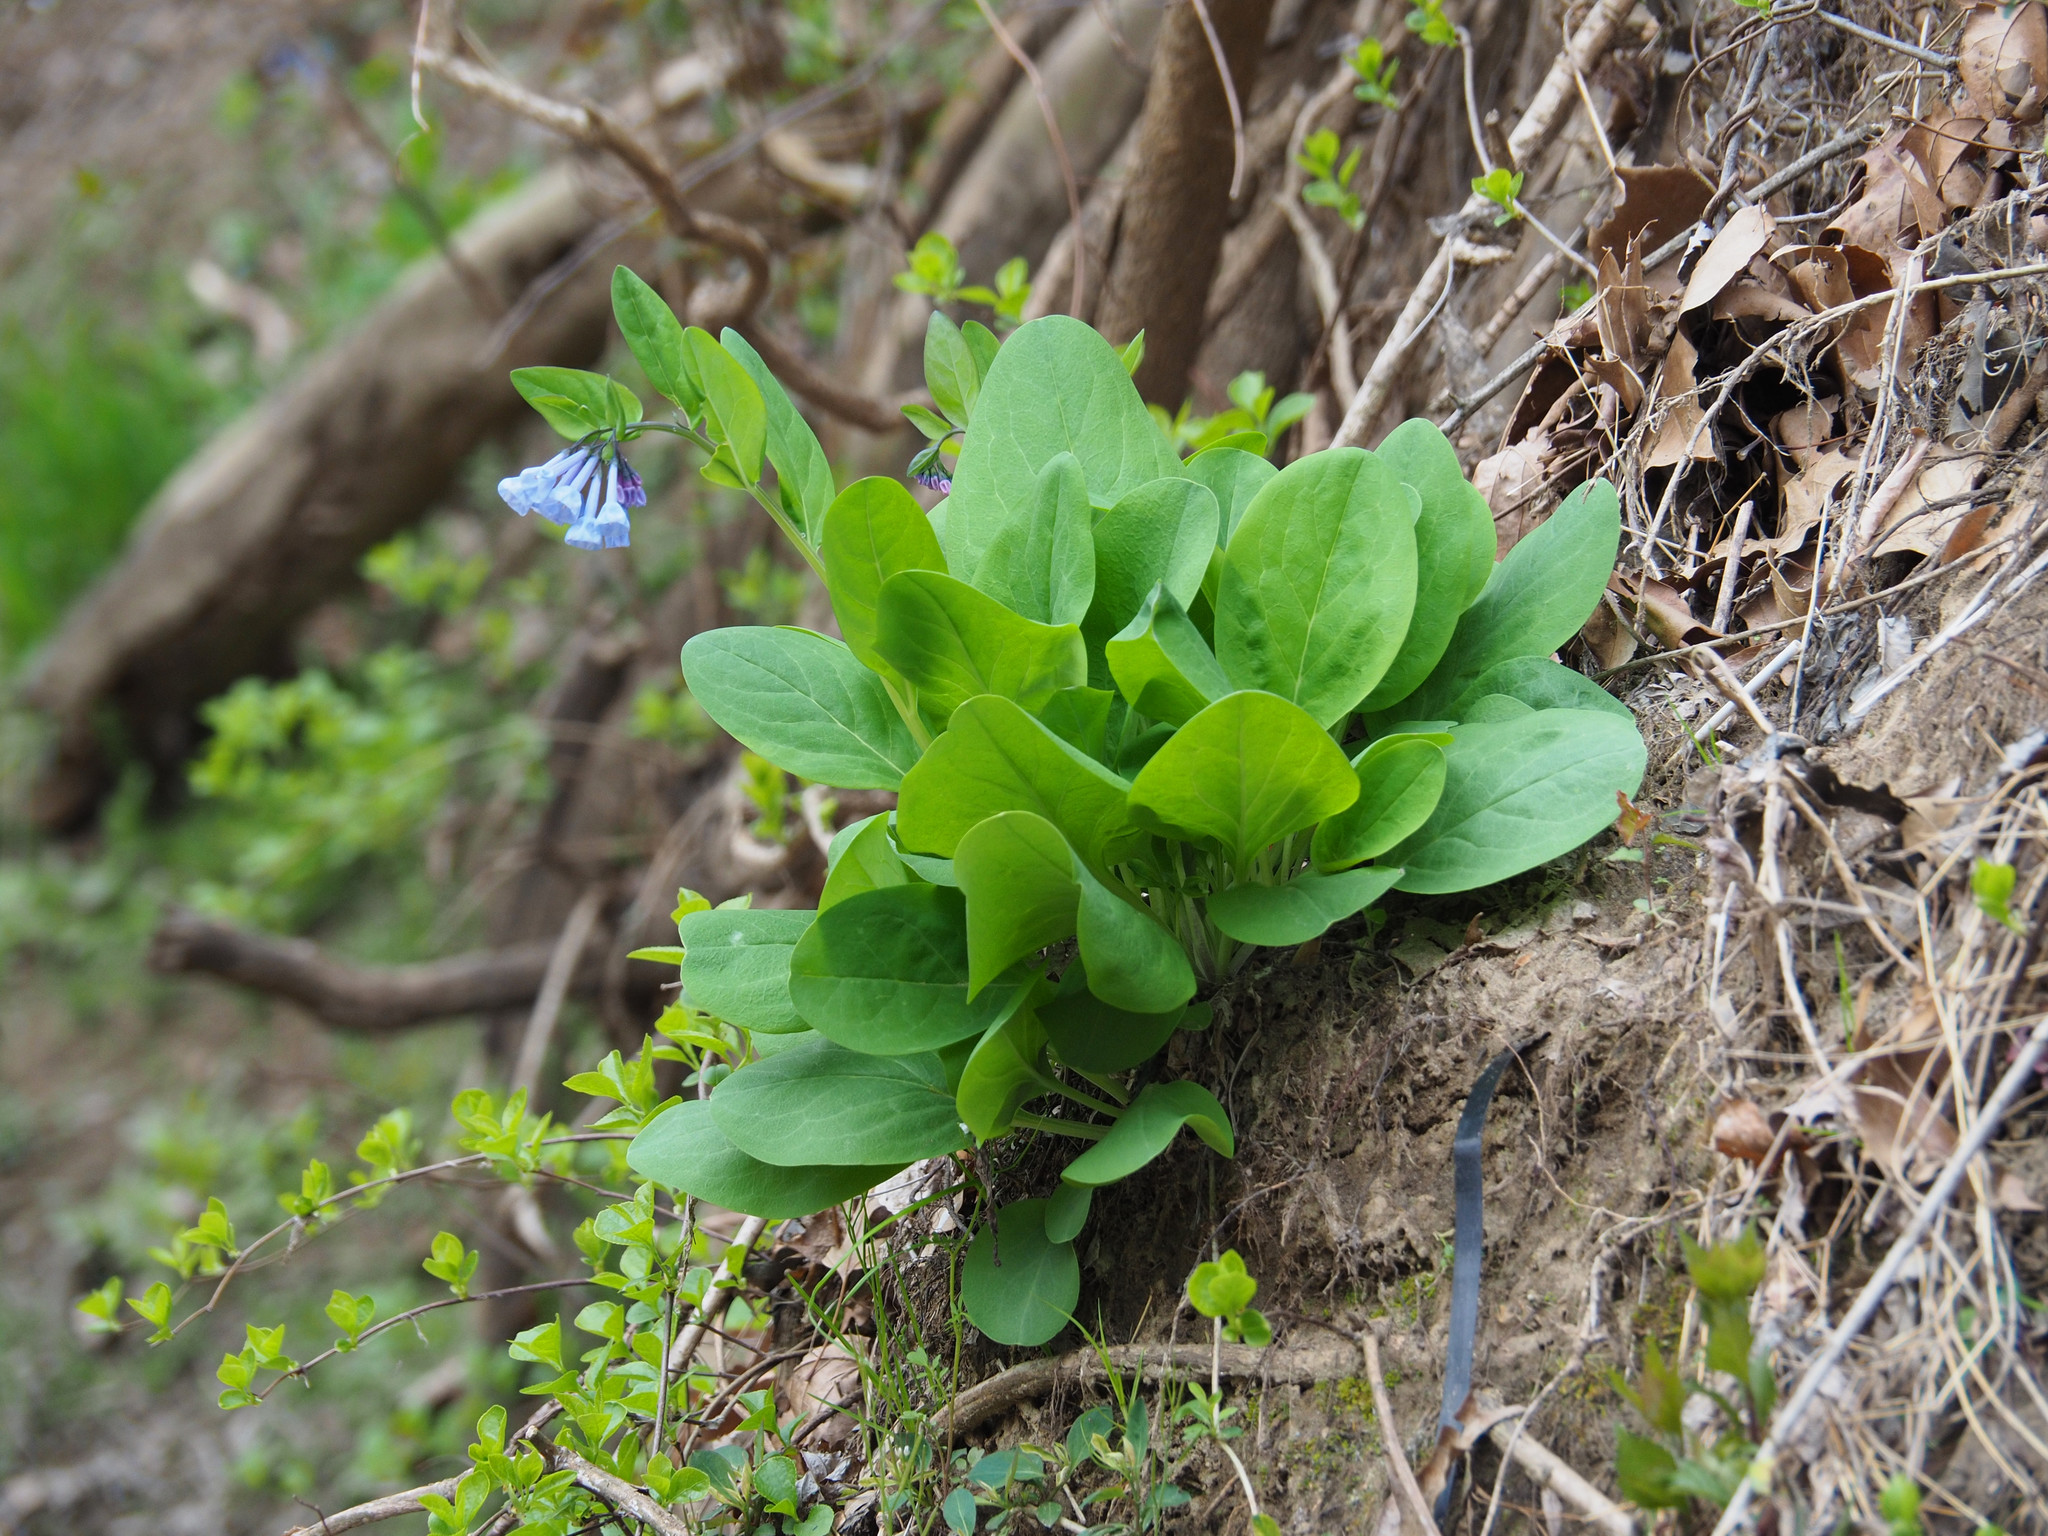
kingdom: Plantae
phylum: Tracheophyta
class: Magnoliopsida
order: Boraginales
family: Boraginaceae
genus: Mertensia
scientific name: Mertensia virginica
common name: Virginia bluebells
